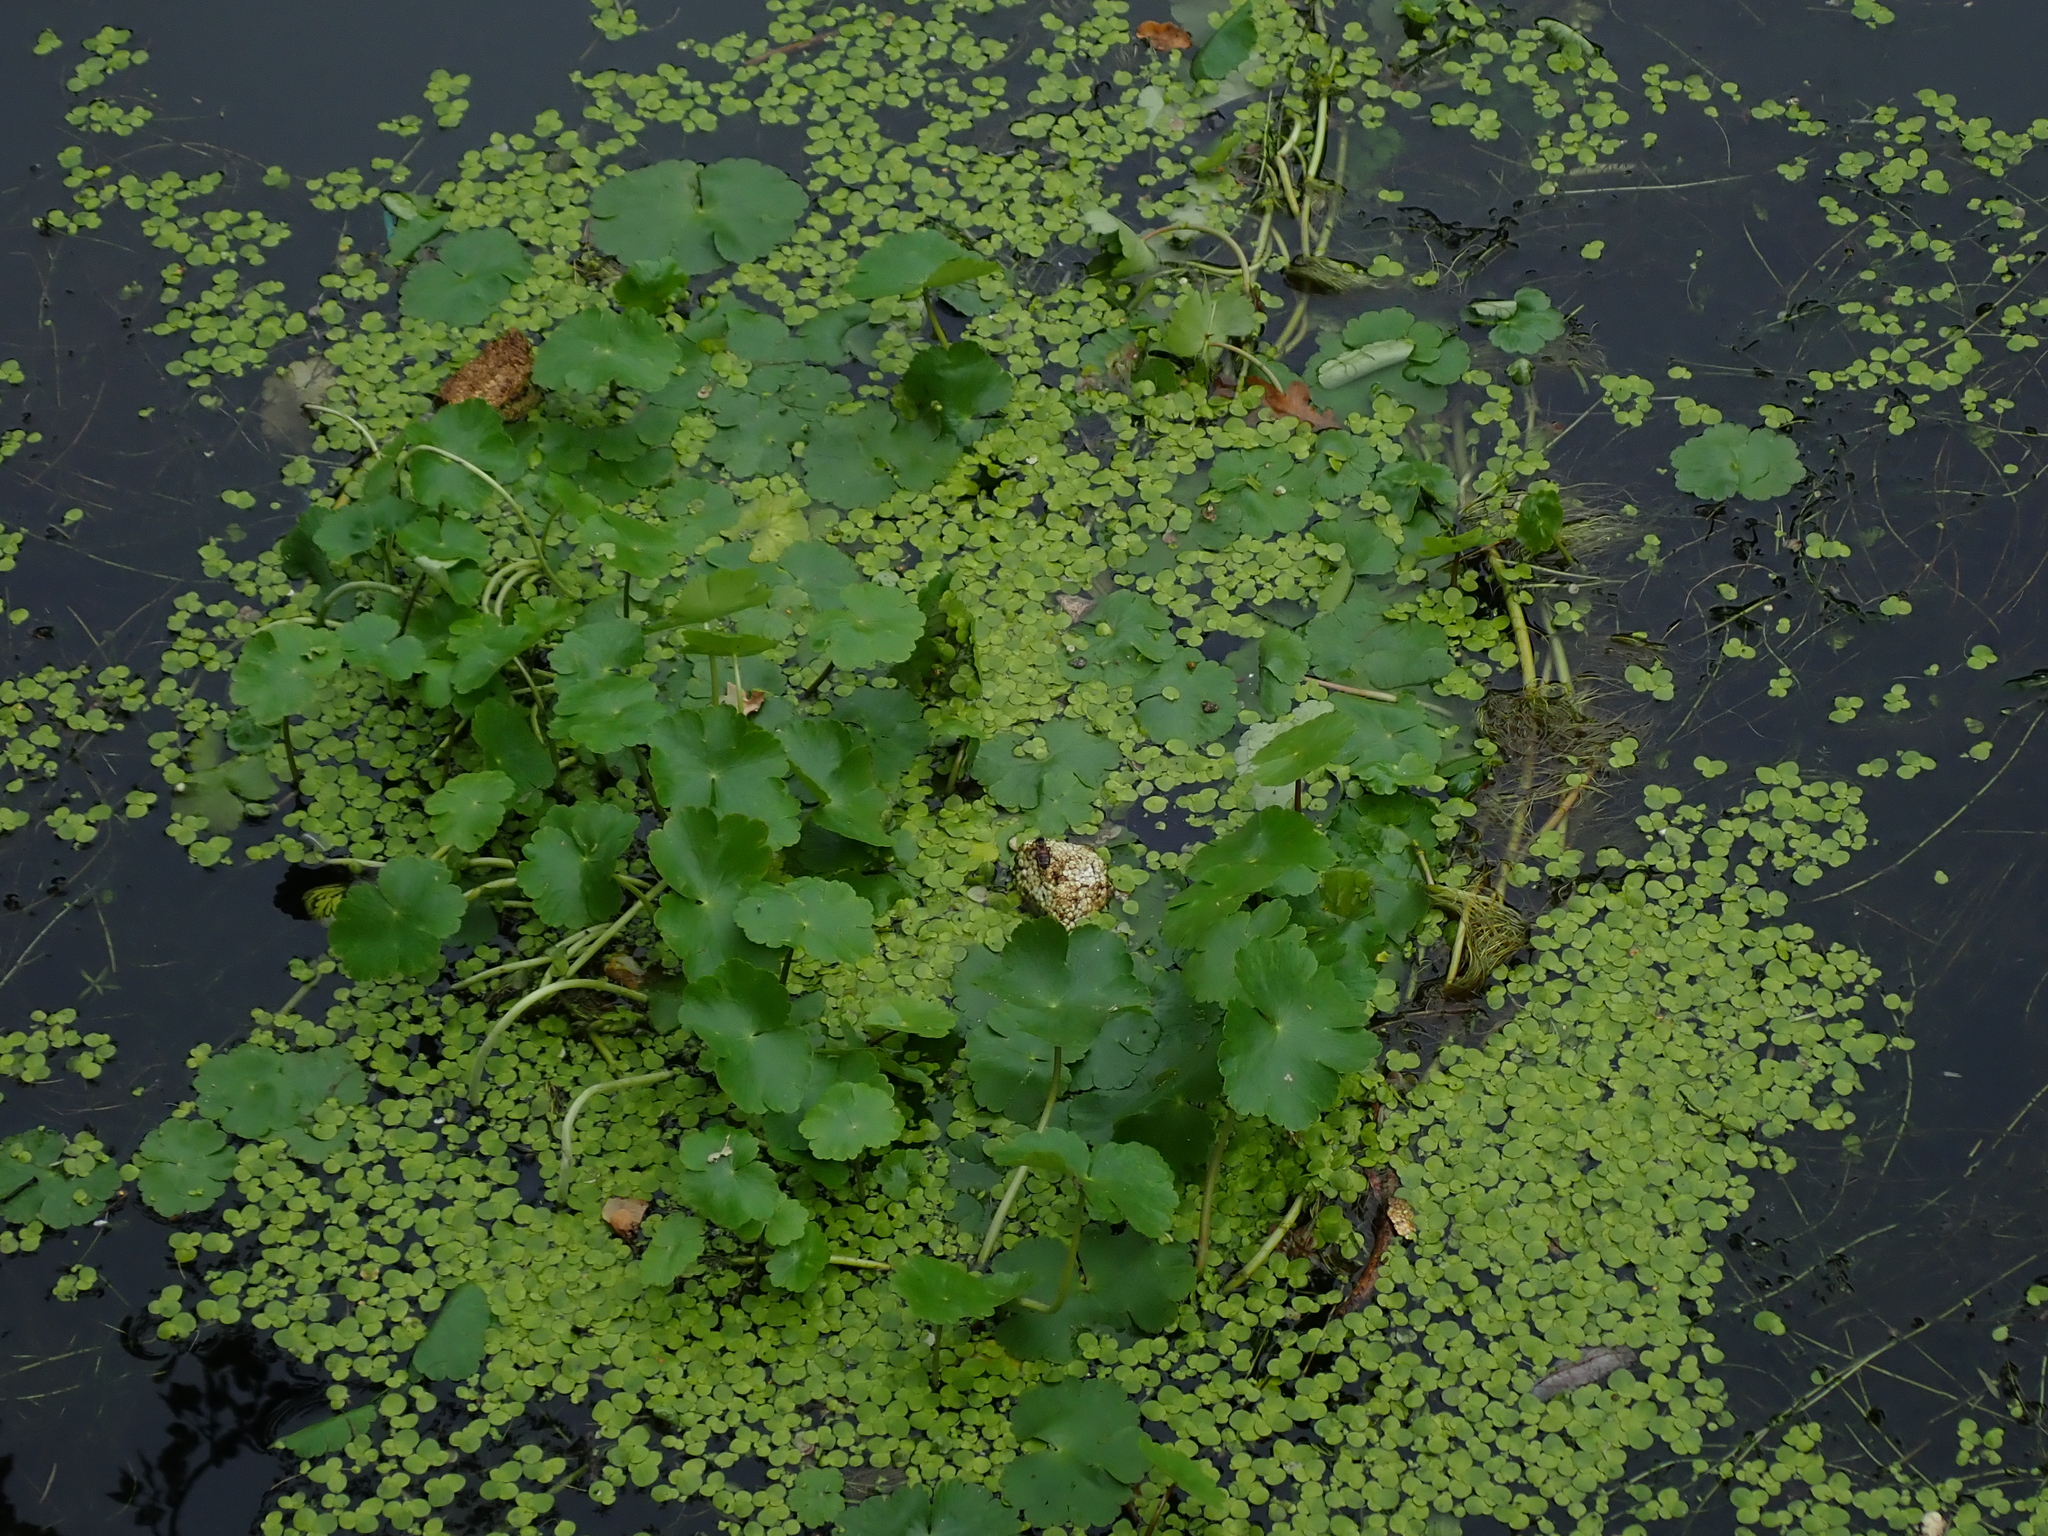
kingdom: Plantae
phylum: Tracheophyta
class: Magnoliopsida
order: Apiales
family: Araliaceae
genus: Hydrocotyle
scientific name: Hydrocotyle ranunculoides
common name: Floating pennywort
